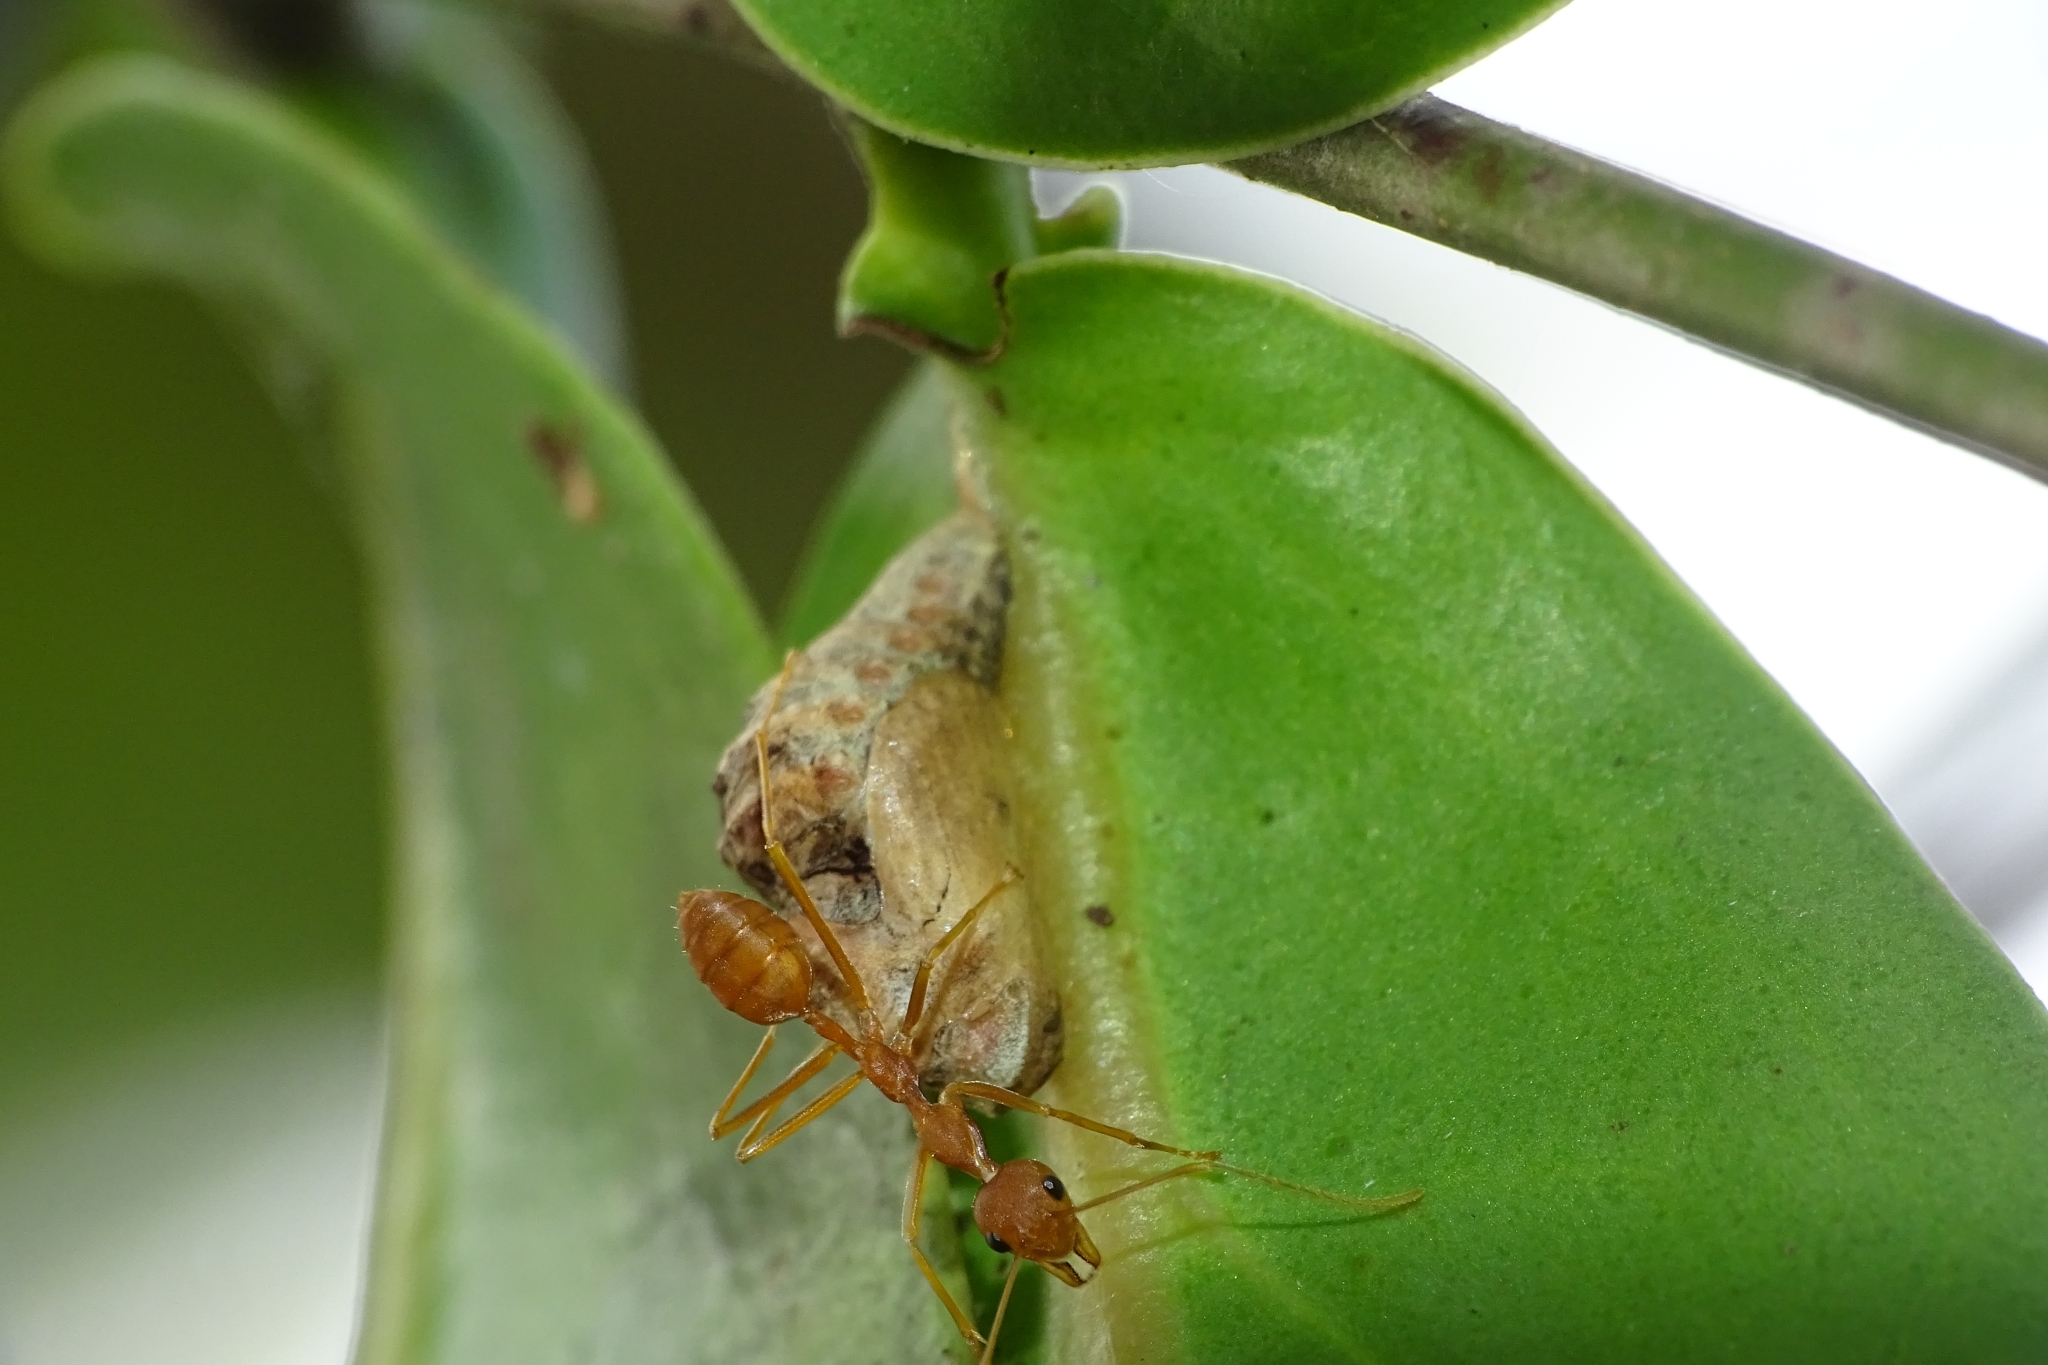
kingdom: Animalia
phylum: Arthropoda
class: Insecta
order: Lepidoptera
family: Lycaenidae
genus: Tajuria
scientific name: Tajuria cippus
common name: Peacock royal
